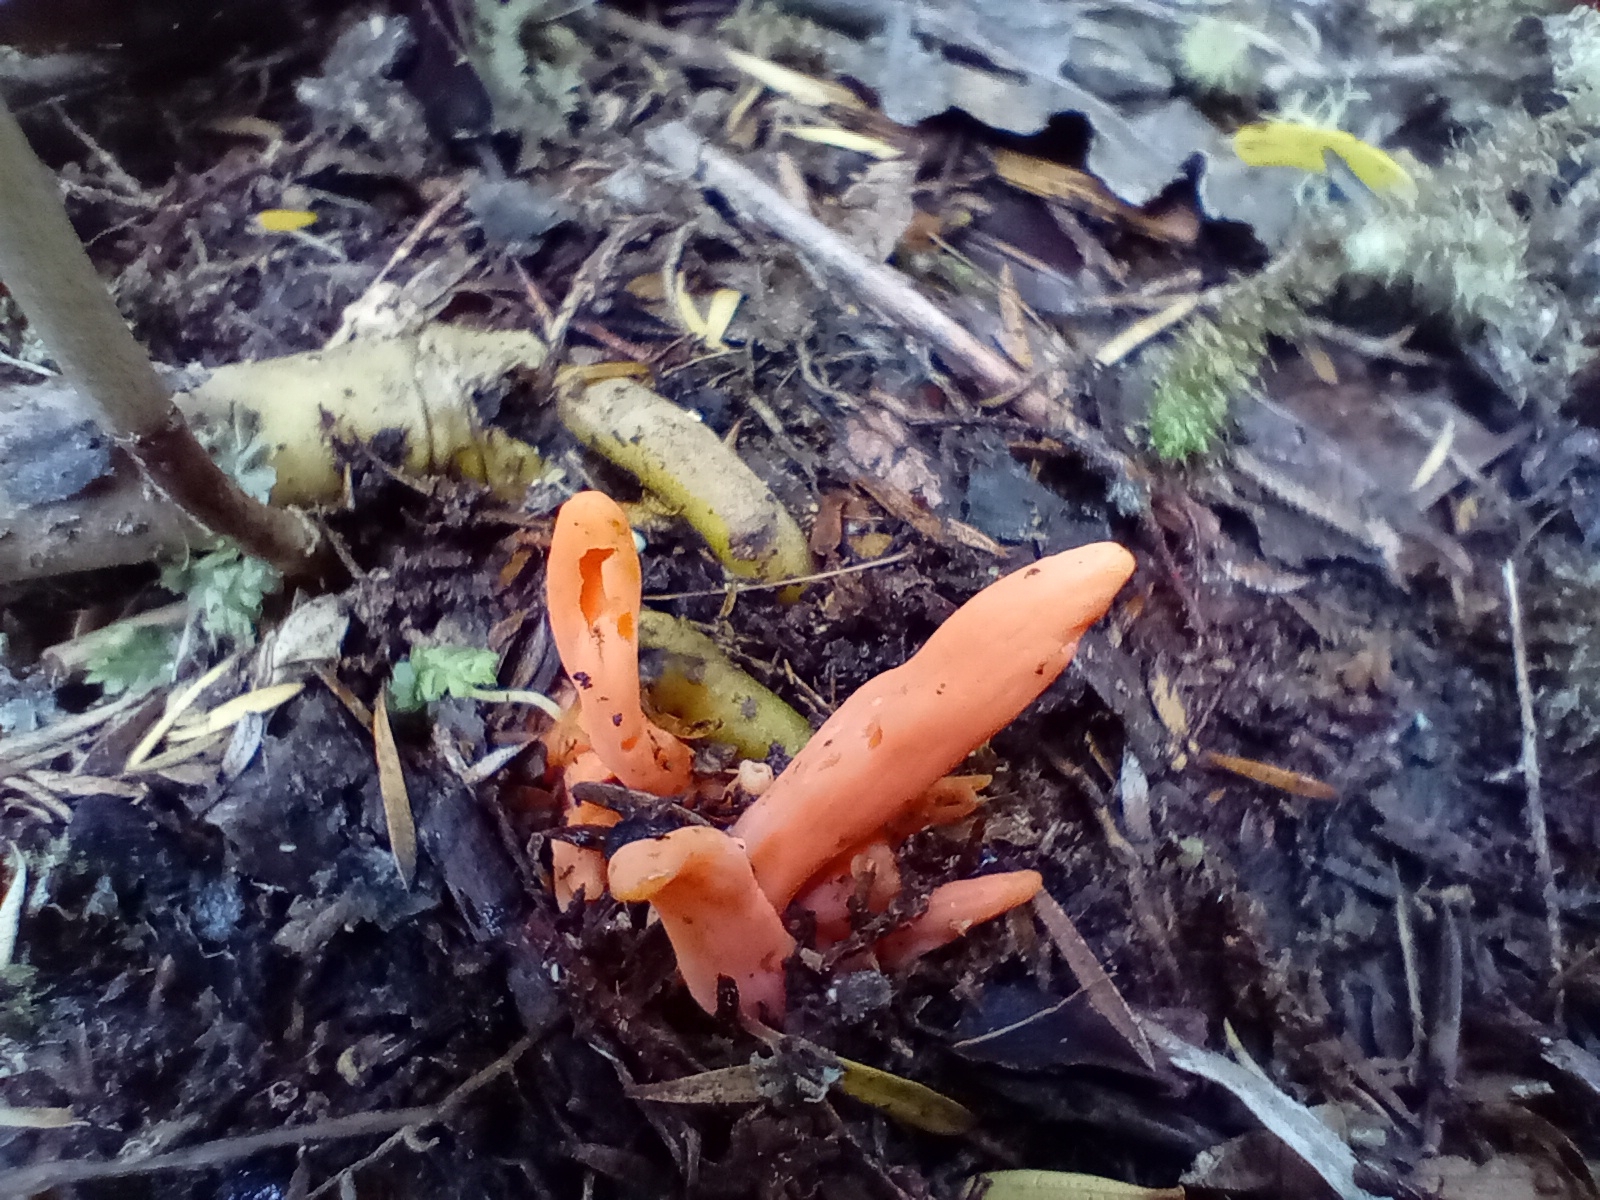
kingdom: Fungi
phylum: Basidiomycota
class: Agaricomycetes
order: Agaricales
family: Clavariaceae
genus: Clavulinopsis
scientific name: Clavulinopsis sulcata
